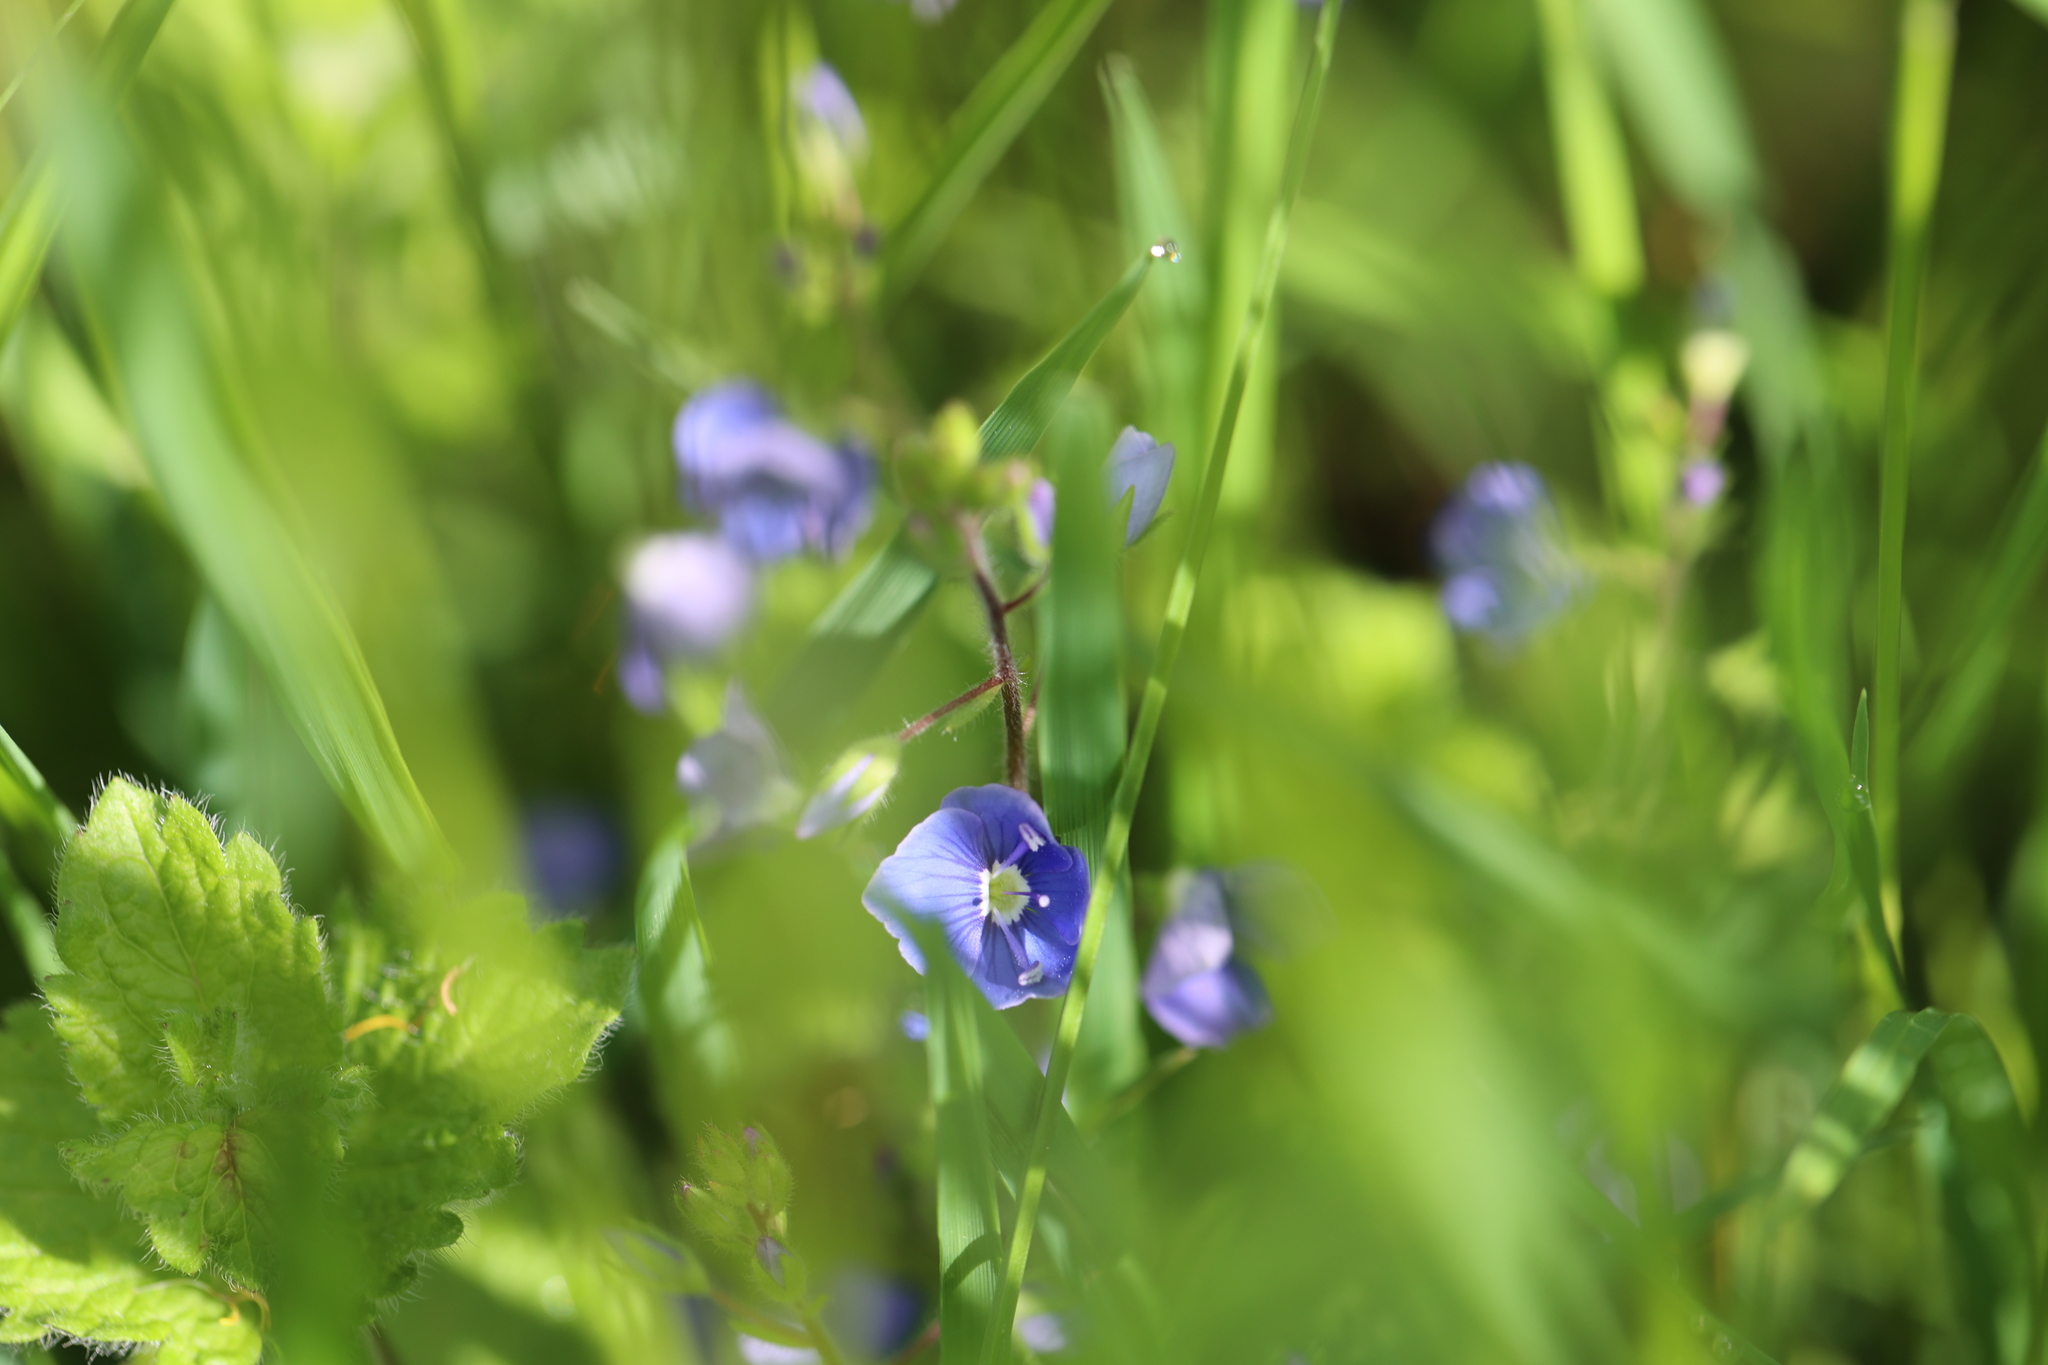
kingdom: Plantae
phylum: Tracheophyta
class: Magnoliopsida
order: Lamiales
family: Plantaginaceae
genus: Veronica
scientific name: Veronica chamaedrys
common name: Germander speedwell
